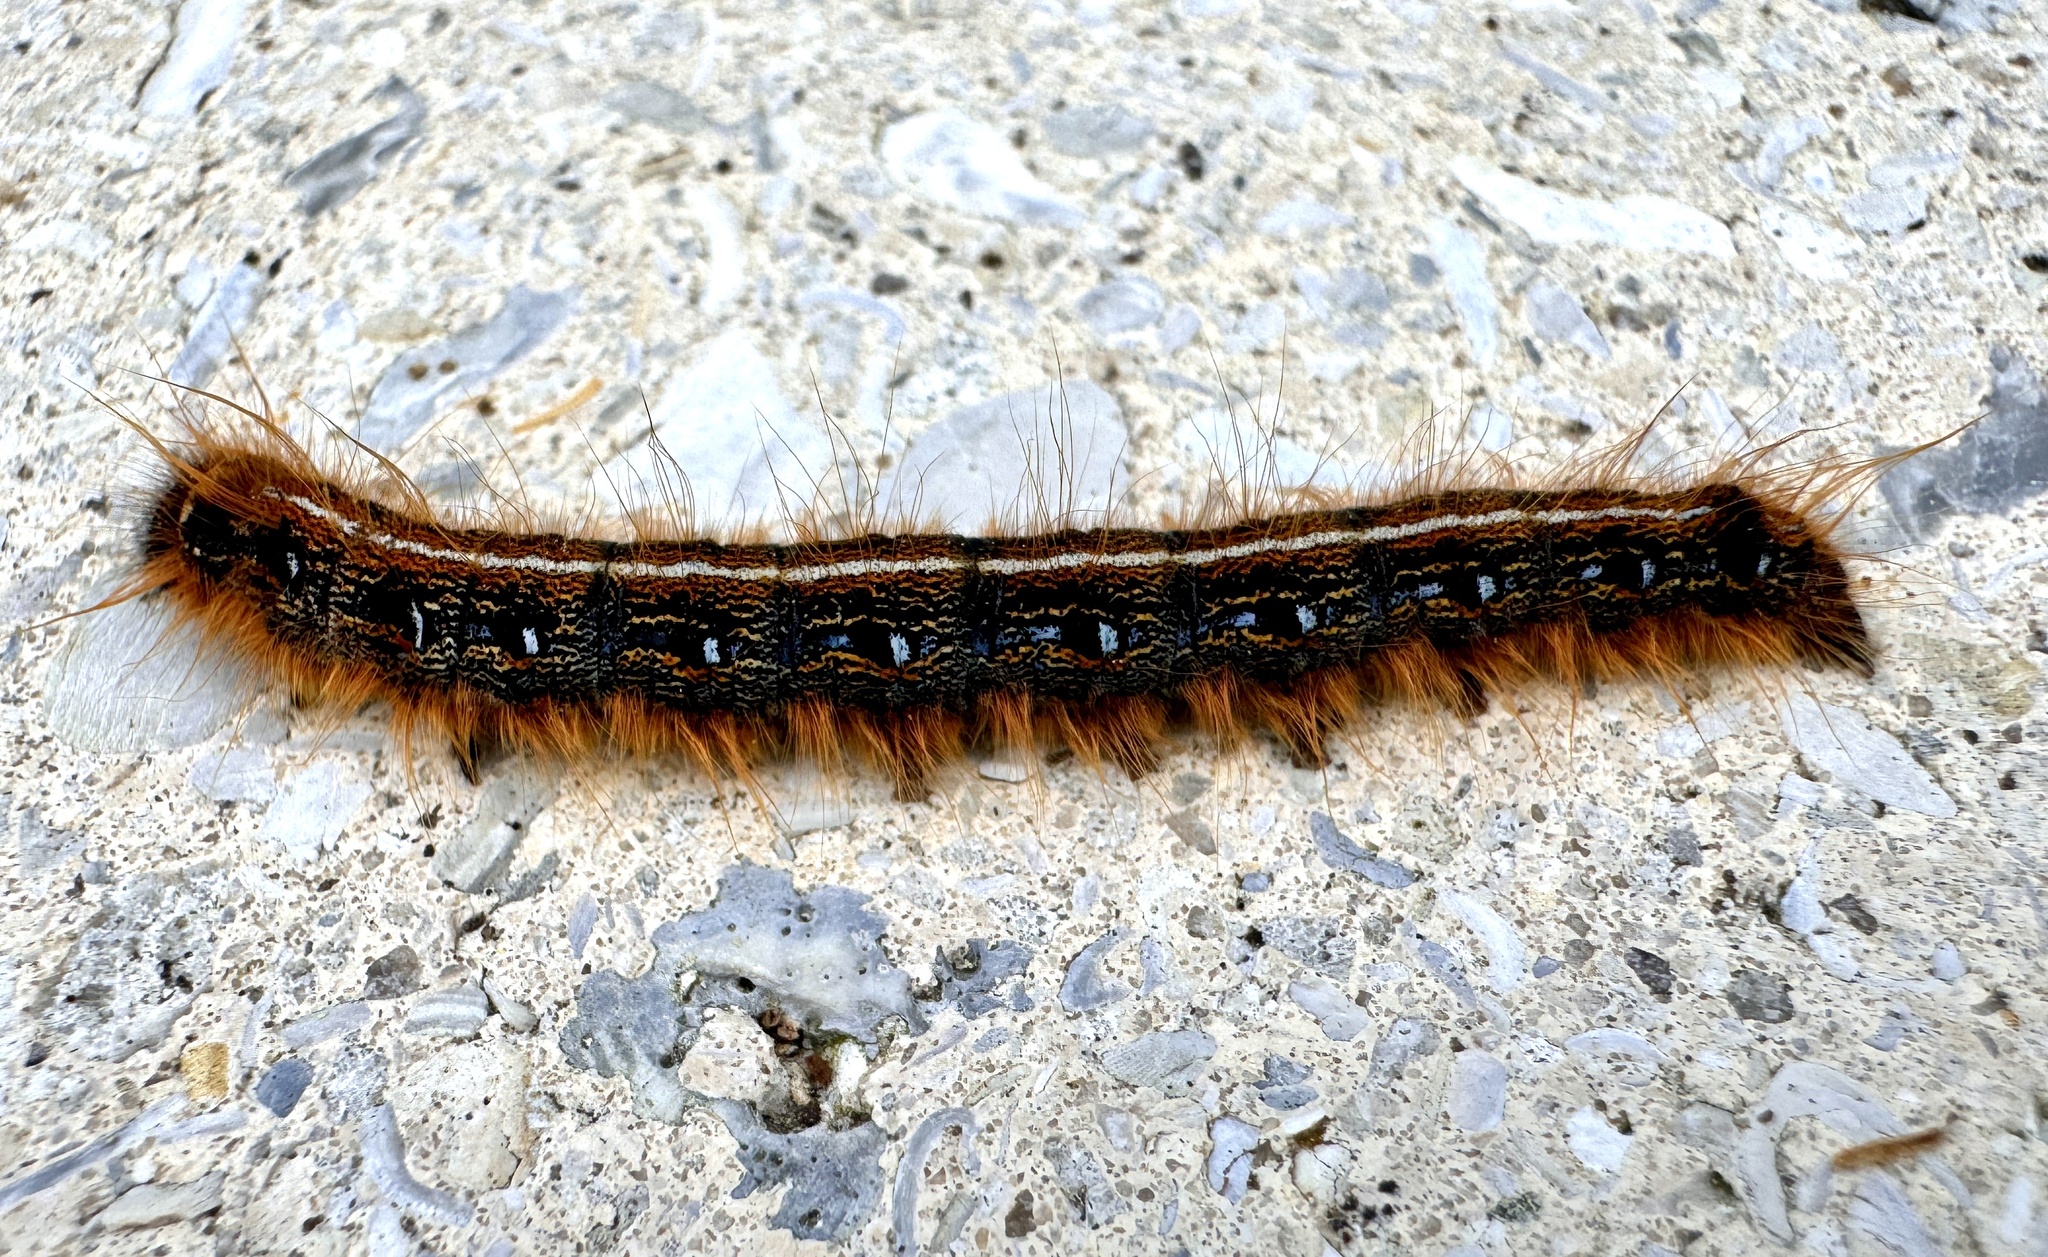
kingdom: Animalia
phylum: Arthropoda
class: Insecta
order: Lepidoptera
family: Lasiocampidae
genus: Malacosoma
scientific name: Malacosoma americana
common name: Eastern tent caterpillar moth
